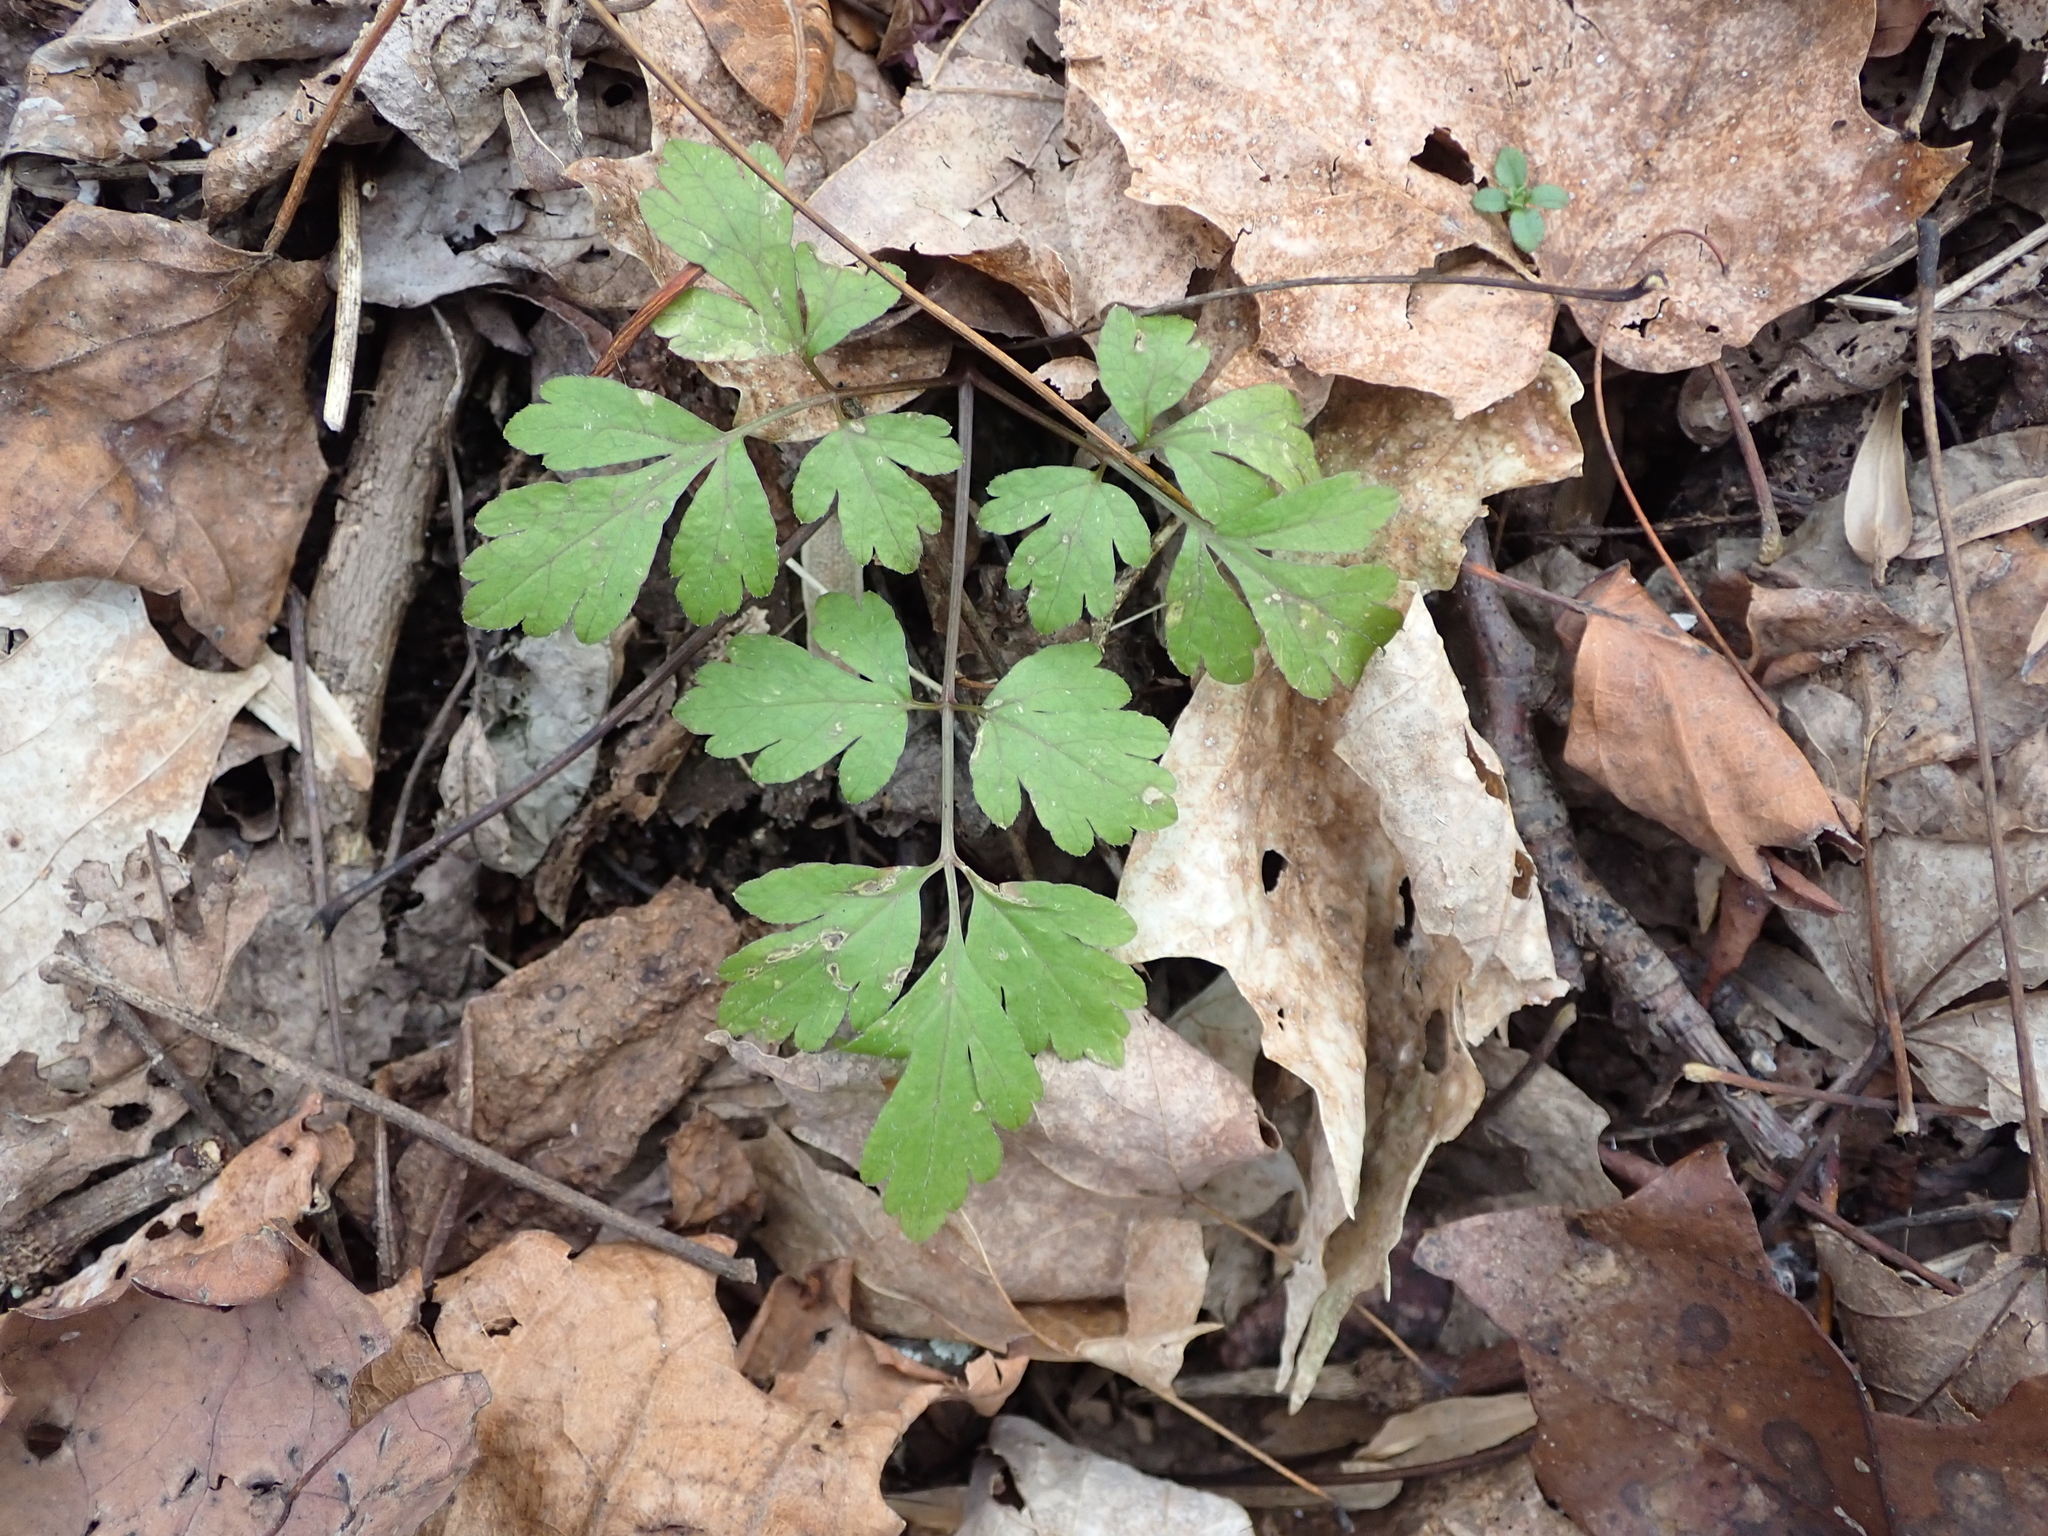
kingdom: Plantae
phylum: Tracheophyta
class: Magnoliopsida
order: Apiales
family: Apiaceae
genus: Osmorhiza
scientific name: Osmorhiza longistylis
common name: Smooth sweet cicely
